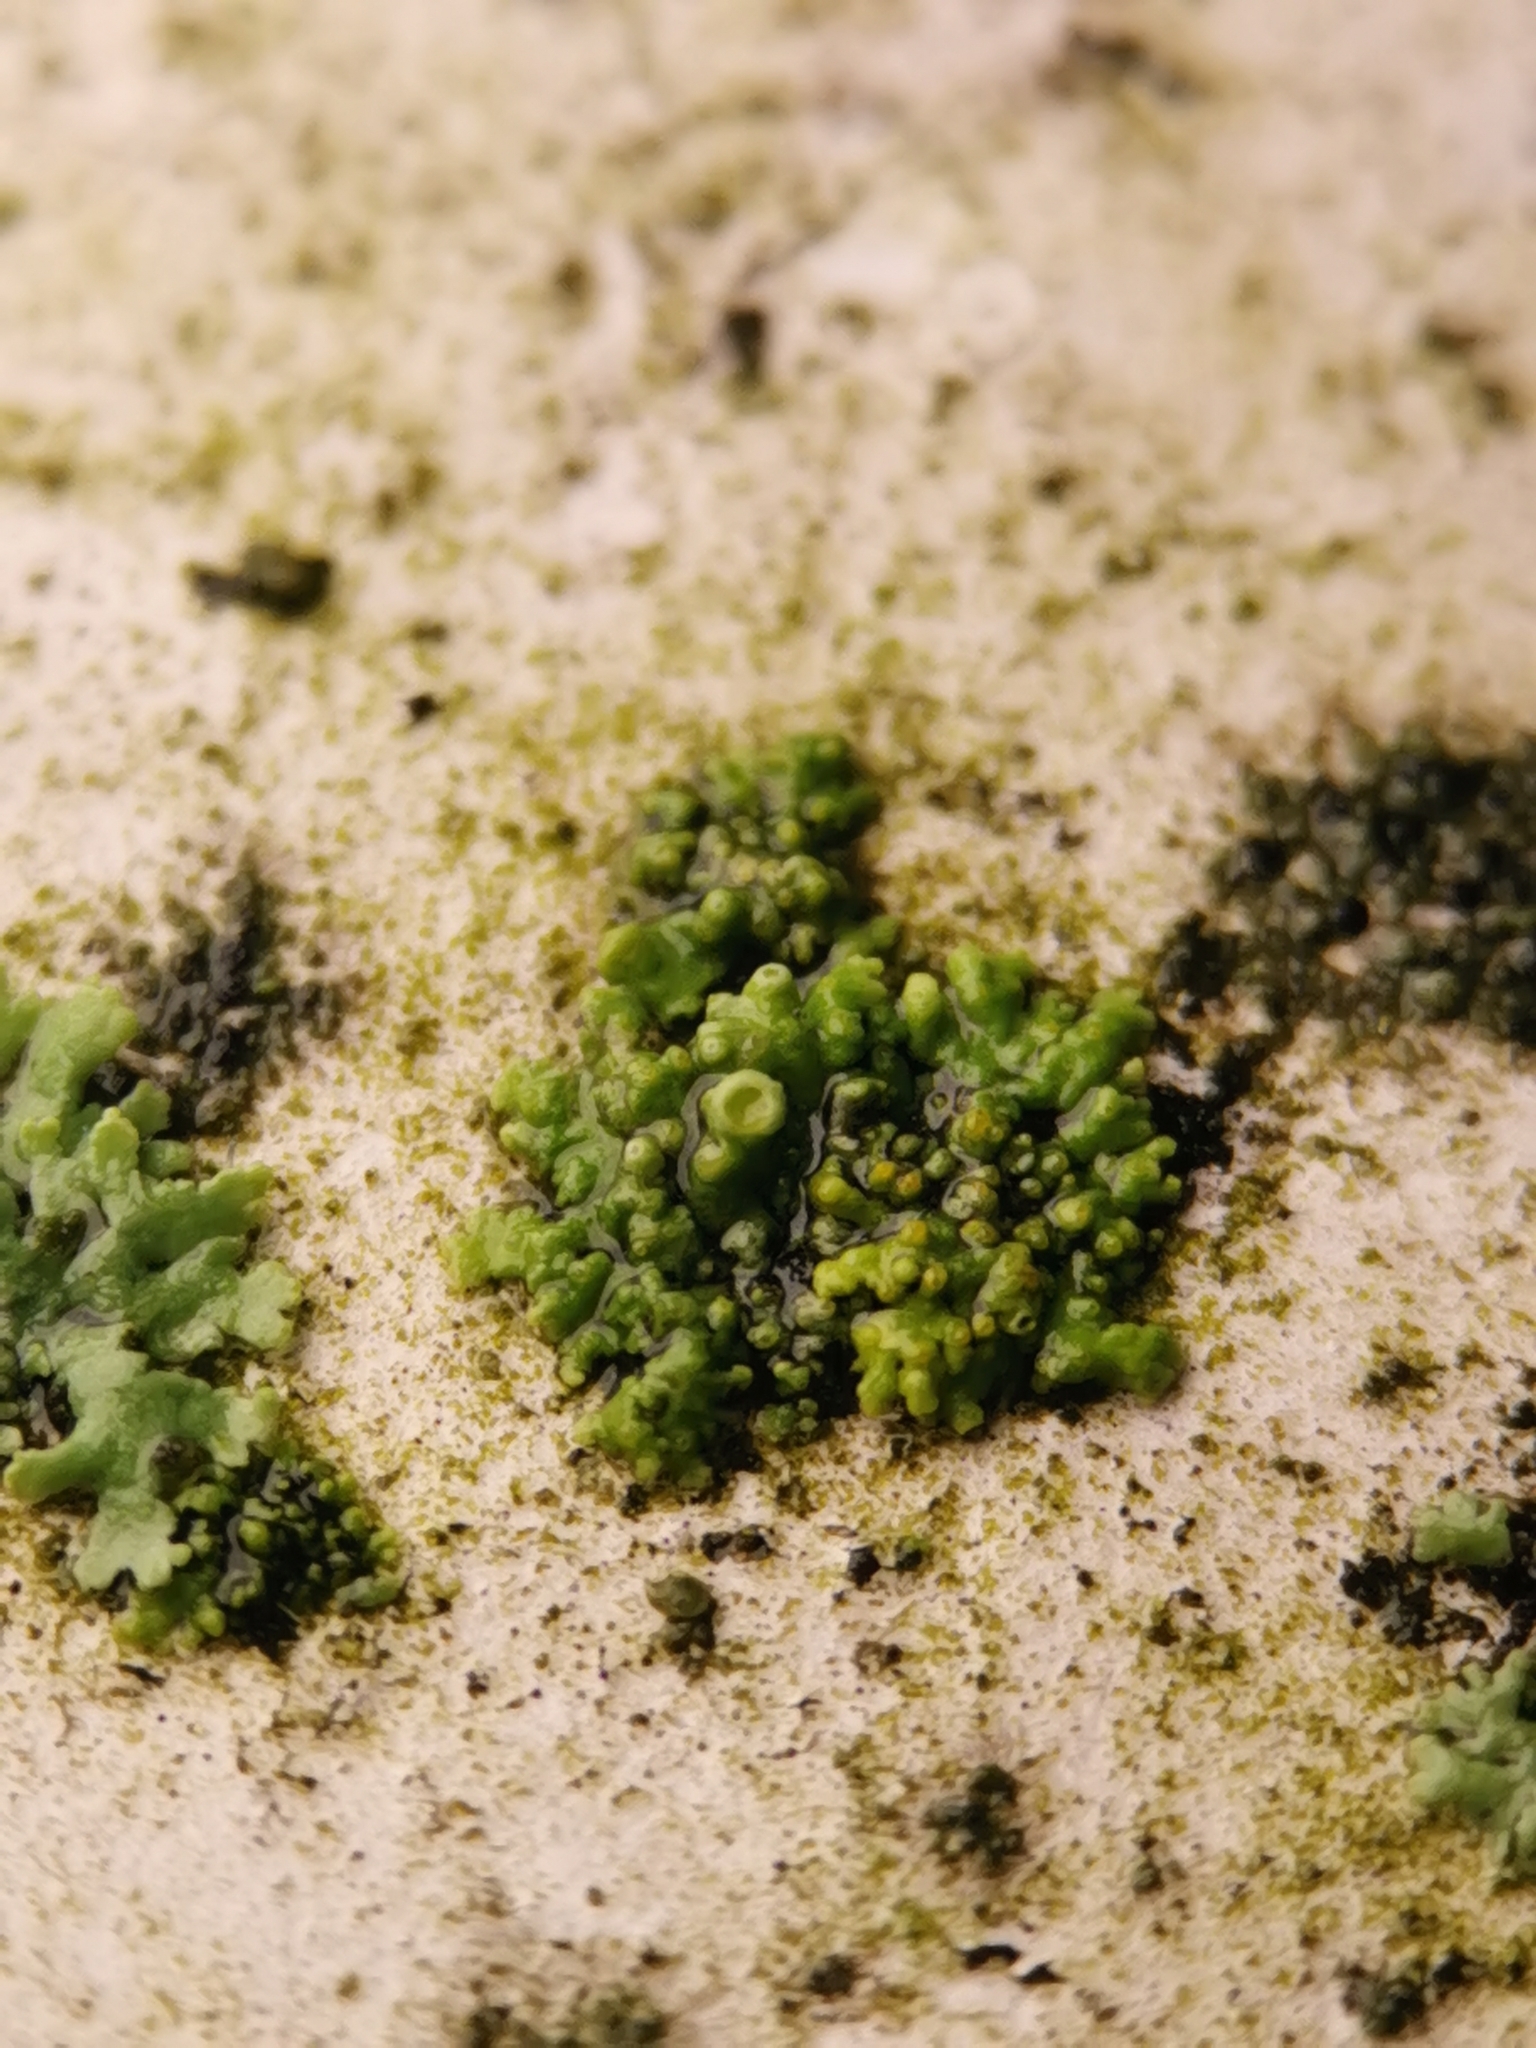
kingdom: Fungi
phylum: Ascomycota
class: Lecanoromycetes
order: Teloschistales
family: Teloschistaceae
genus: Polycauliona
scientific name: Polycauliona polycarpa
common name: Pin-cushion sunburst lichen
